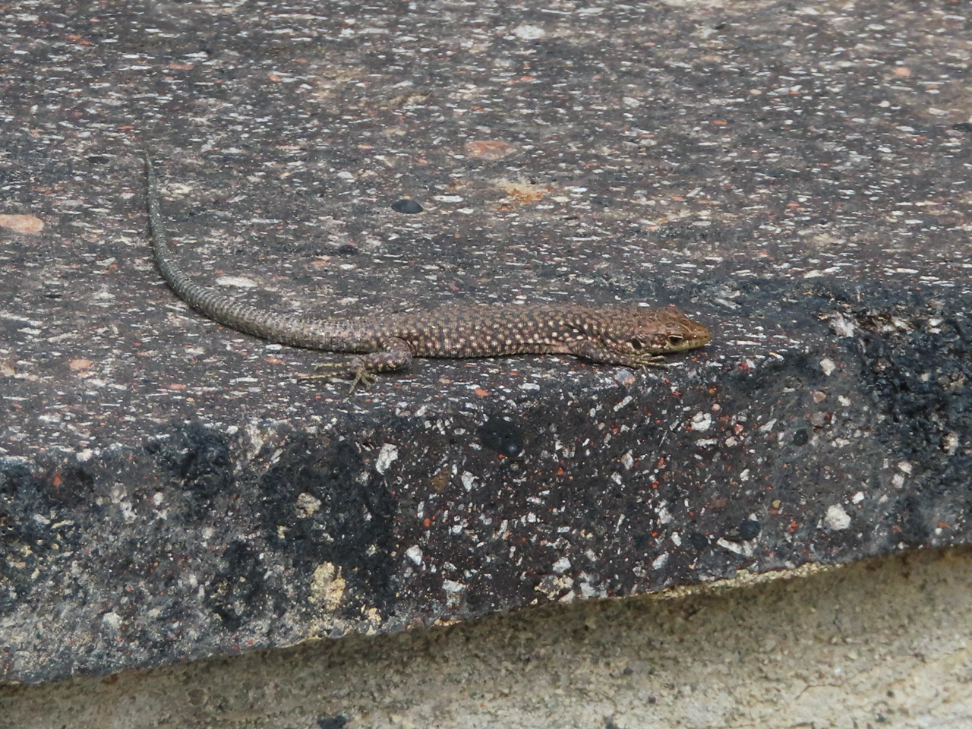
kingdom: Animalia
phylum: Chordata
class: Squamata
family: Lacertidae
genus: Darevskia
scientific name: Darevskia
